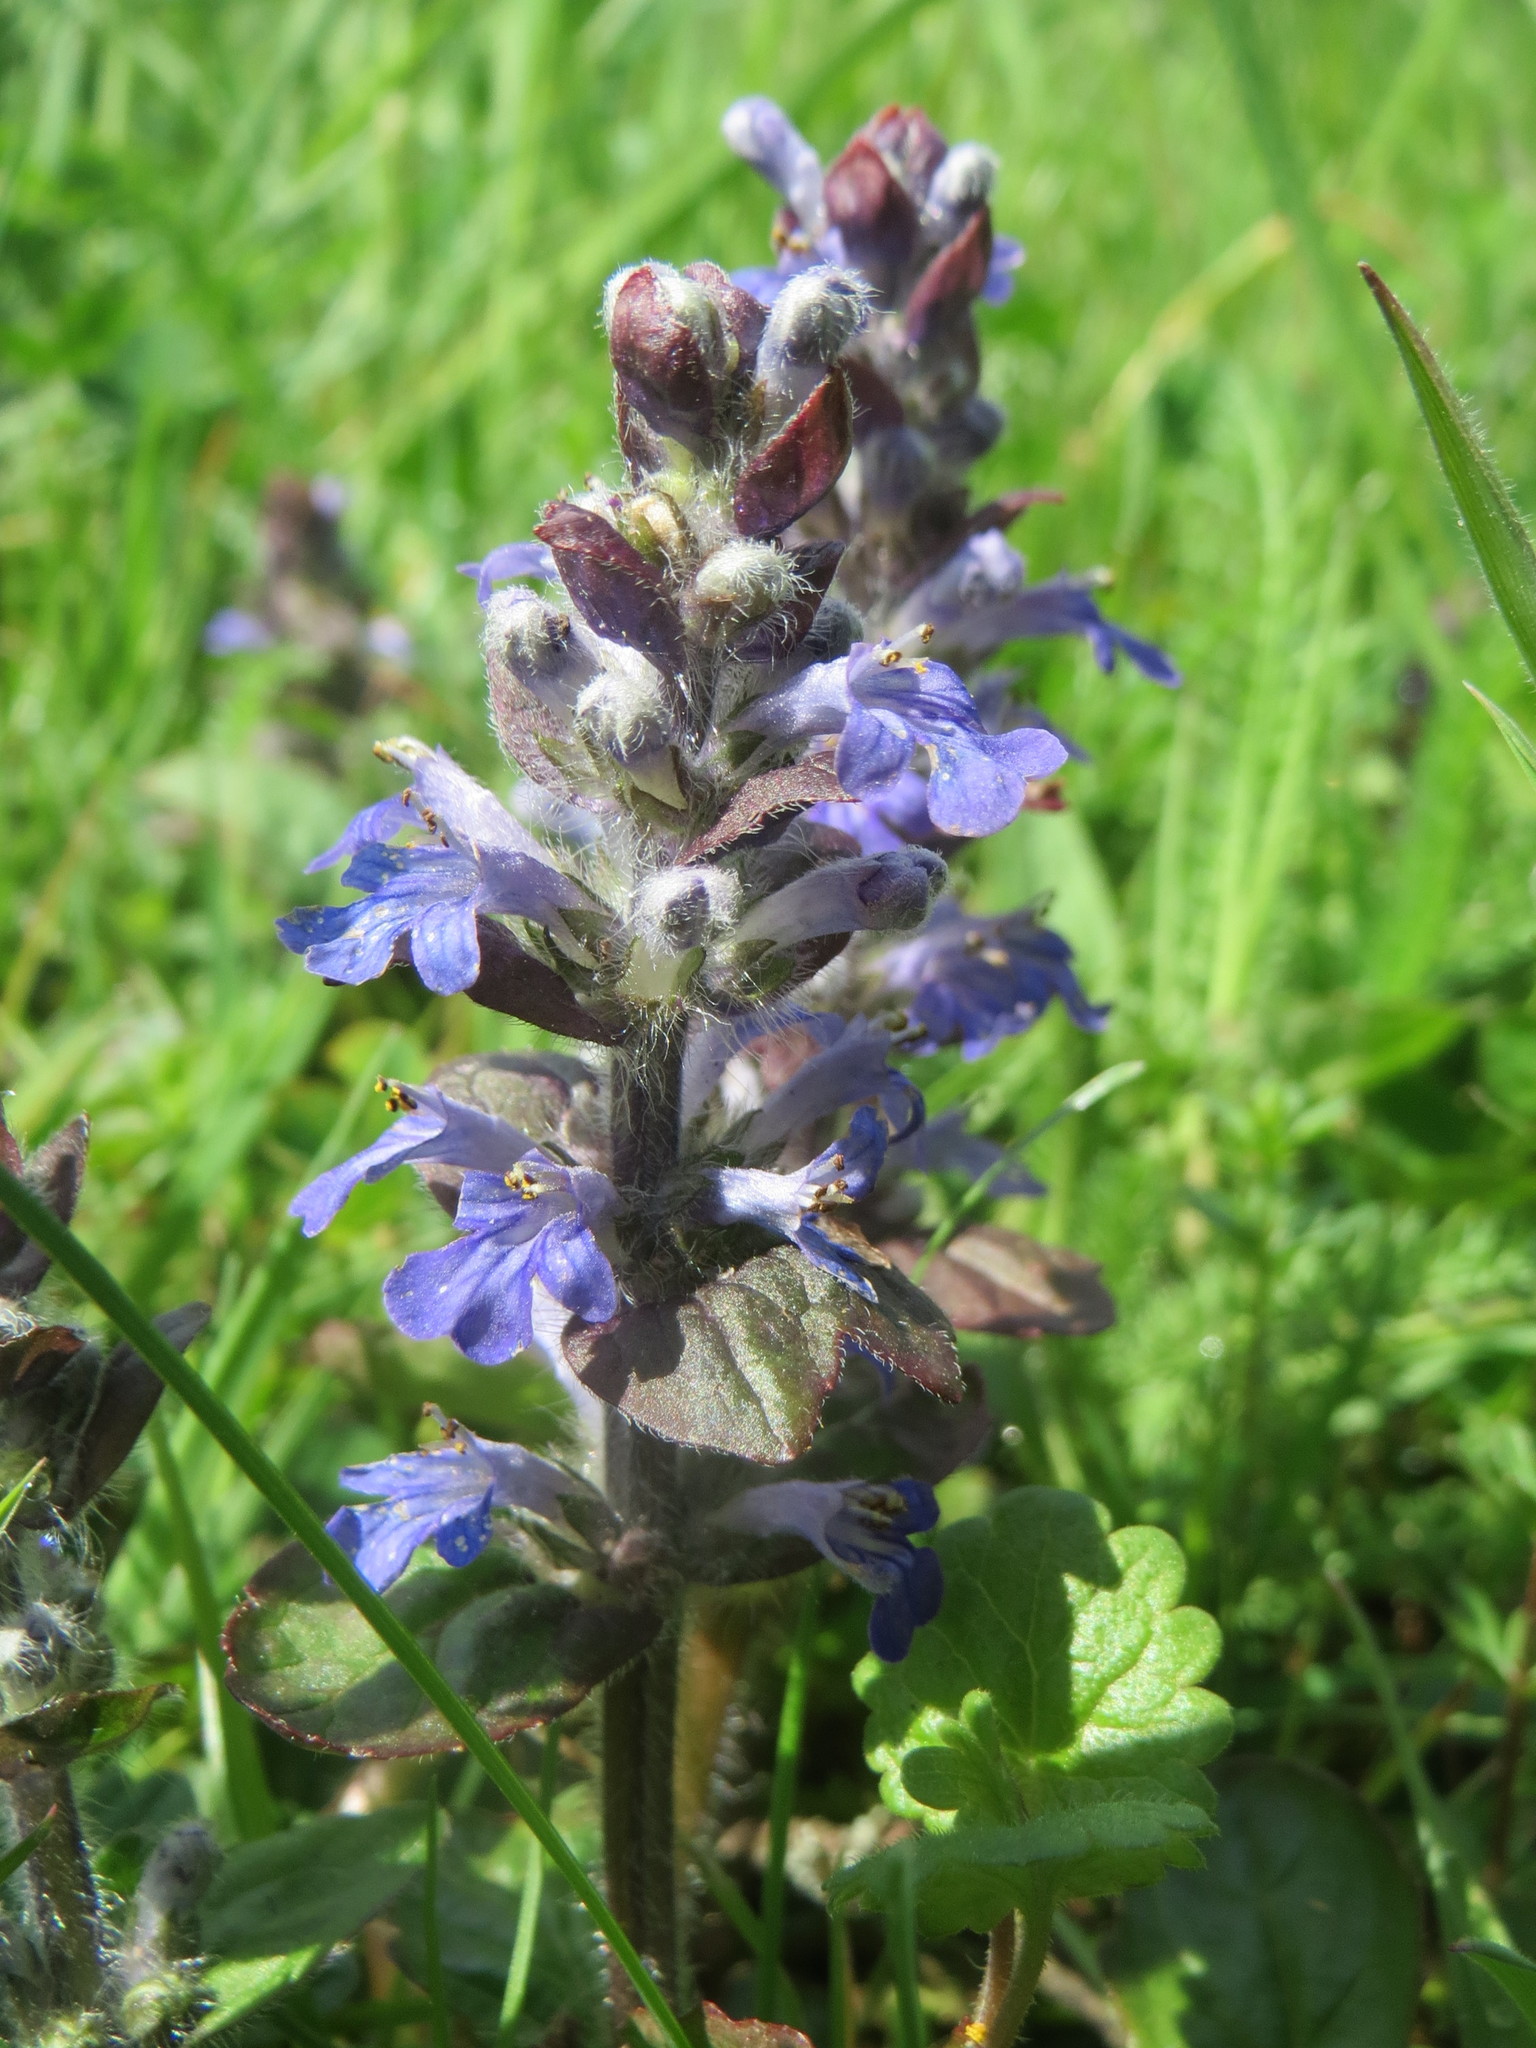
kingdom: Plantae
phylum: Tracheophyta
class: Magnoliopsida
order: Lamiales
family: Lamiaceae
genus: Ajuga
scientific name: Ajuga reptans
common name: Bugle
